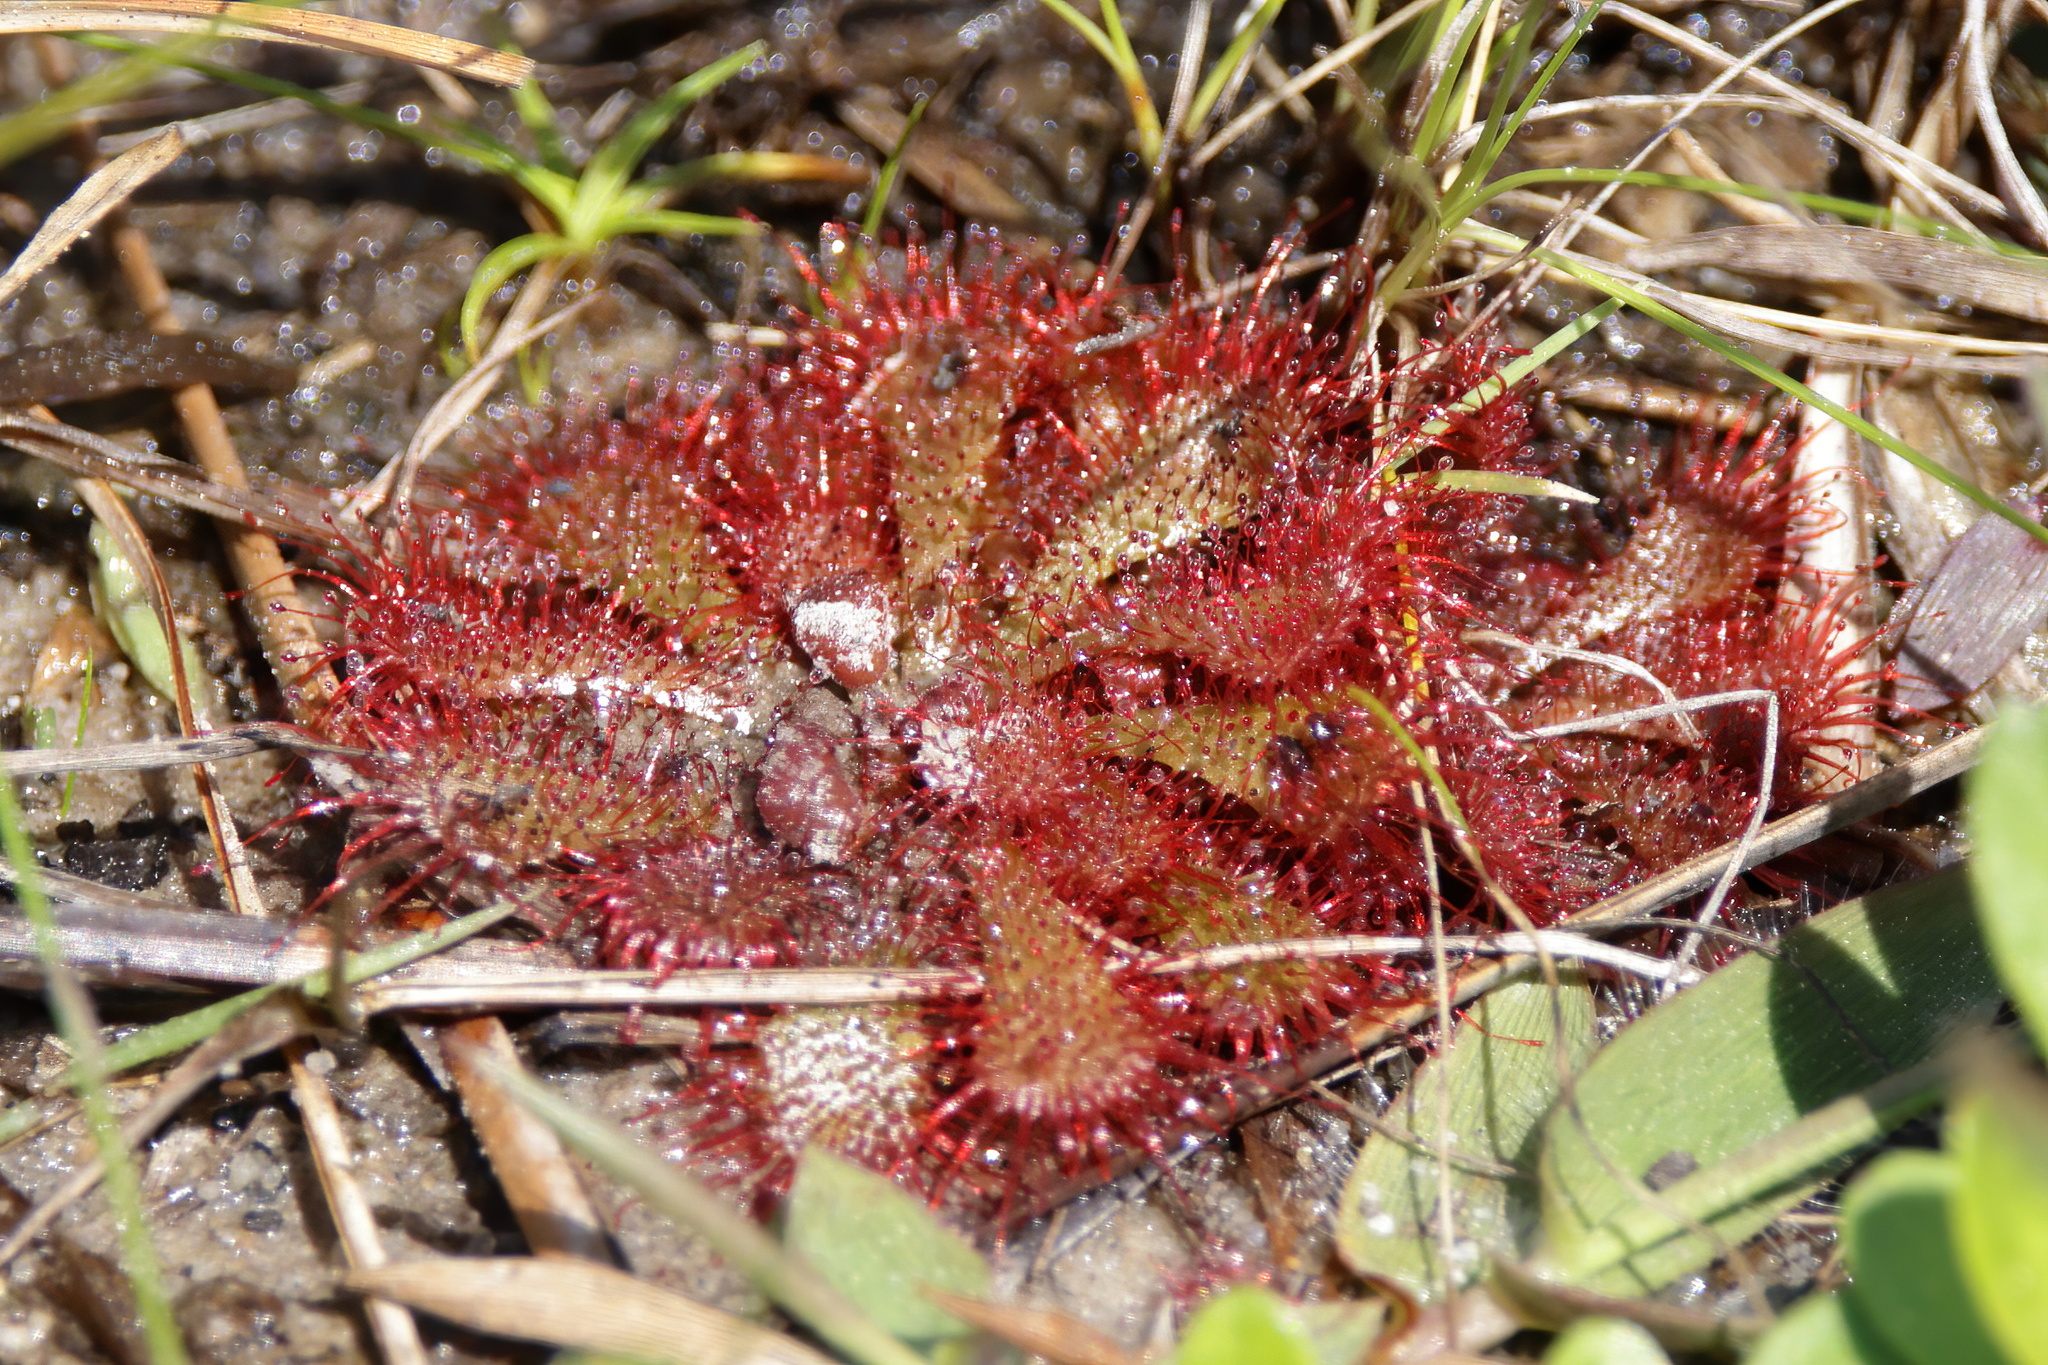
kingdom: Plantae
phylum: Tracheophyta
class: Magnoliopsida
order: Caryophyllales
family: Droseraceae
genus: Drosera
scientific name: Drosera brevifolia
